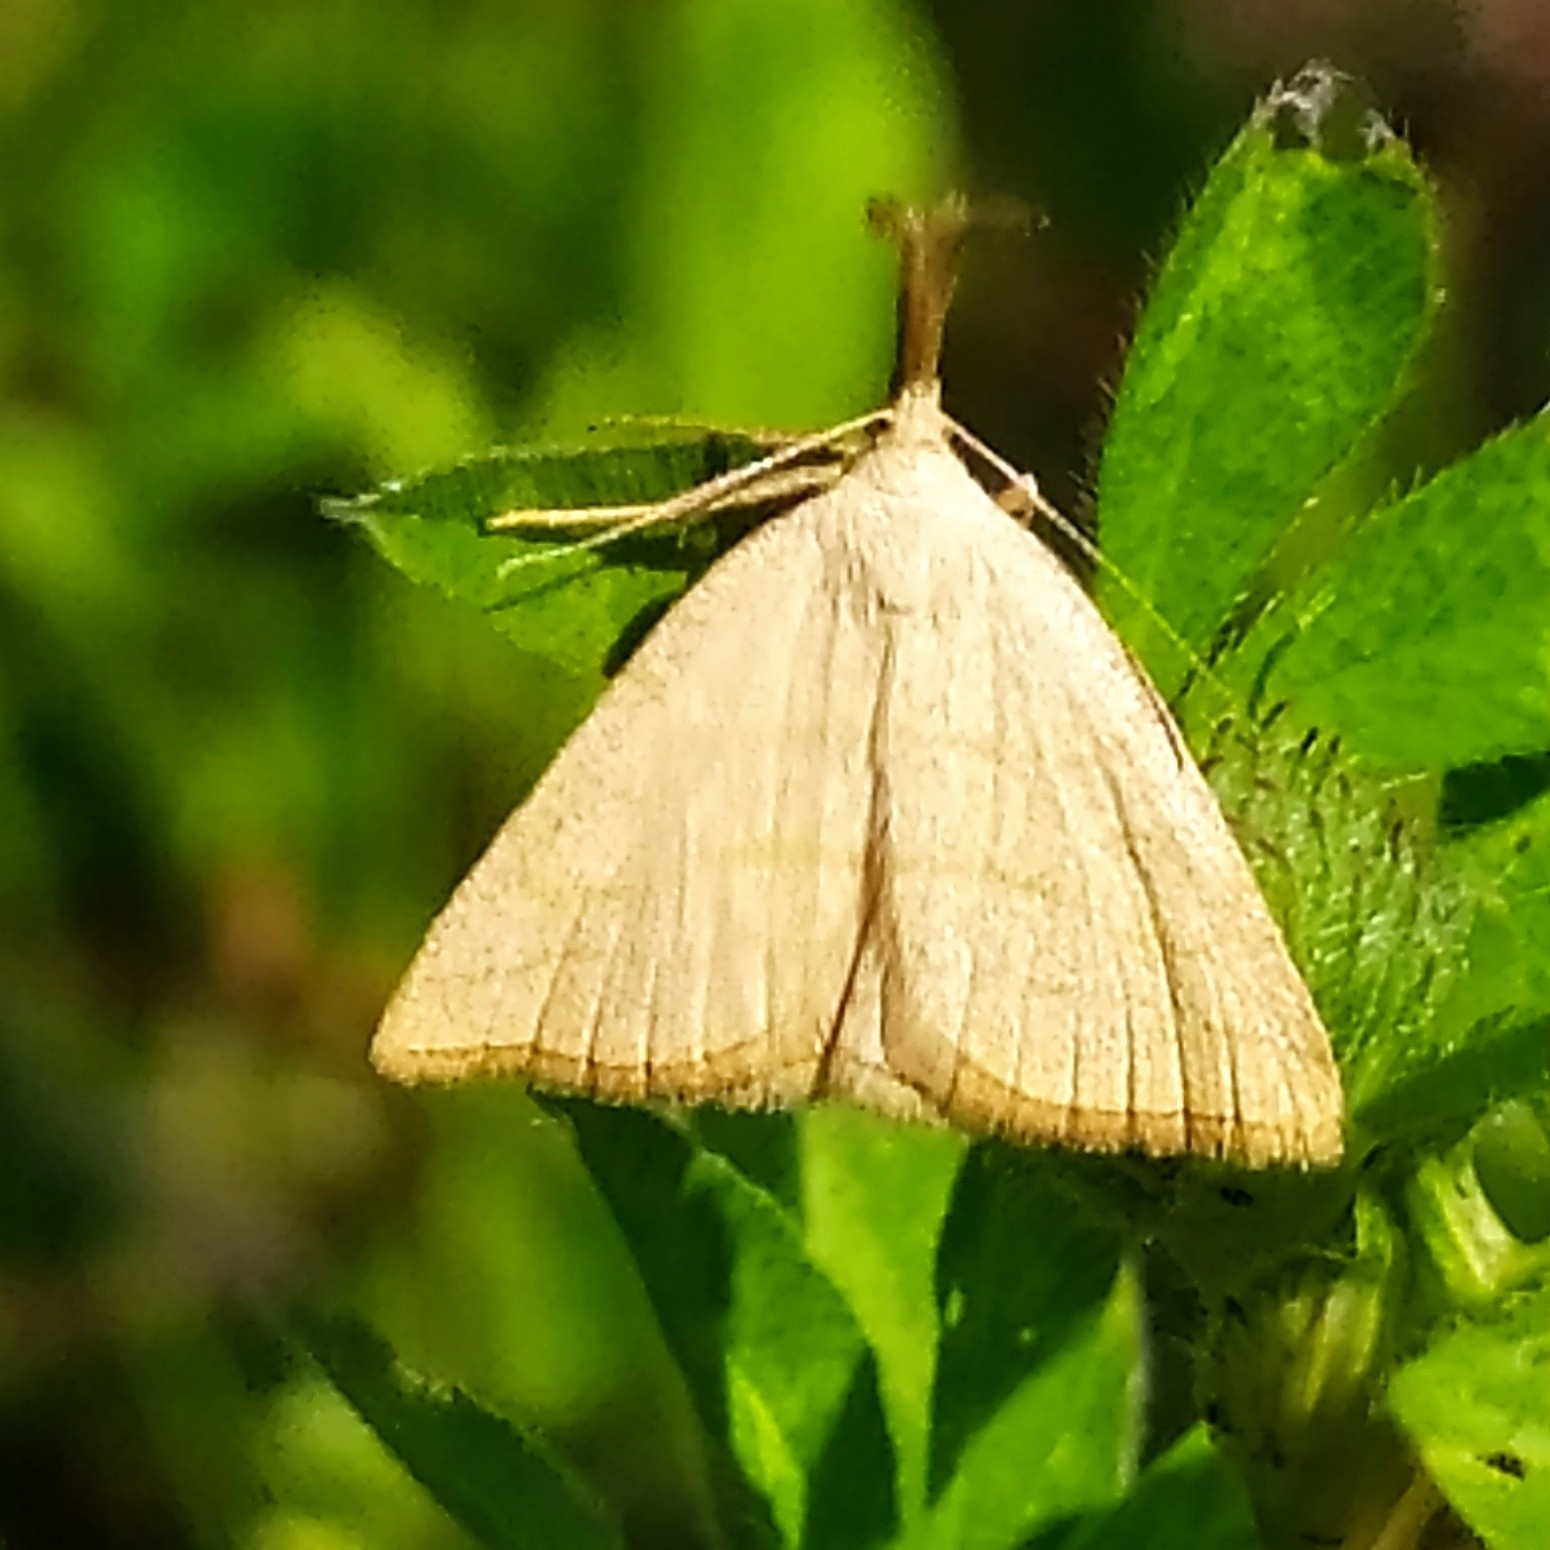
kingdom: Animalia
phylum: Arthropoda
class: Insecta
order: Lepidoptera
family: Erebidae
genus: Polypogon
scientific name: Polypogon tentacularia
